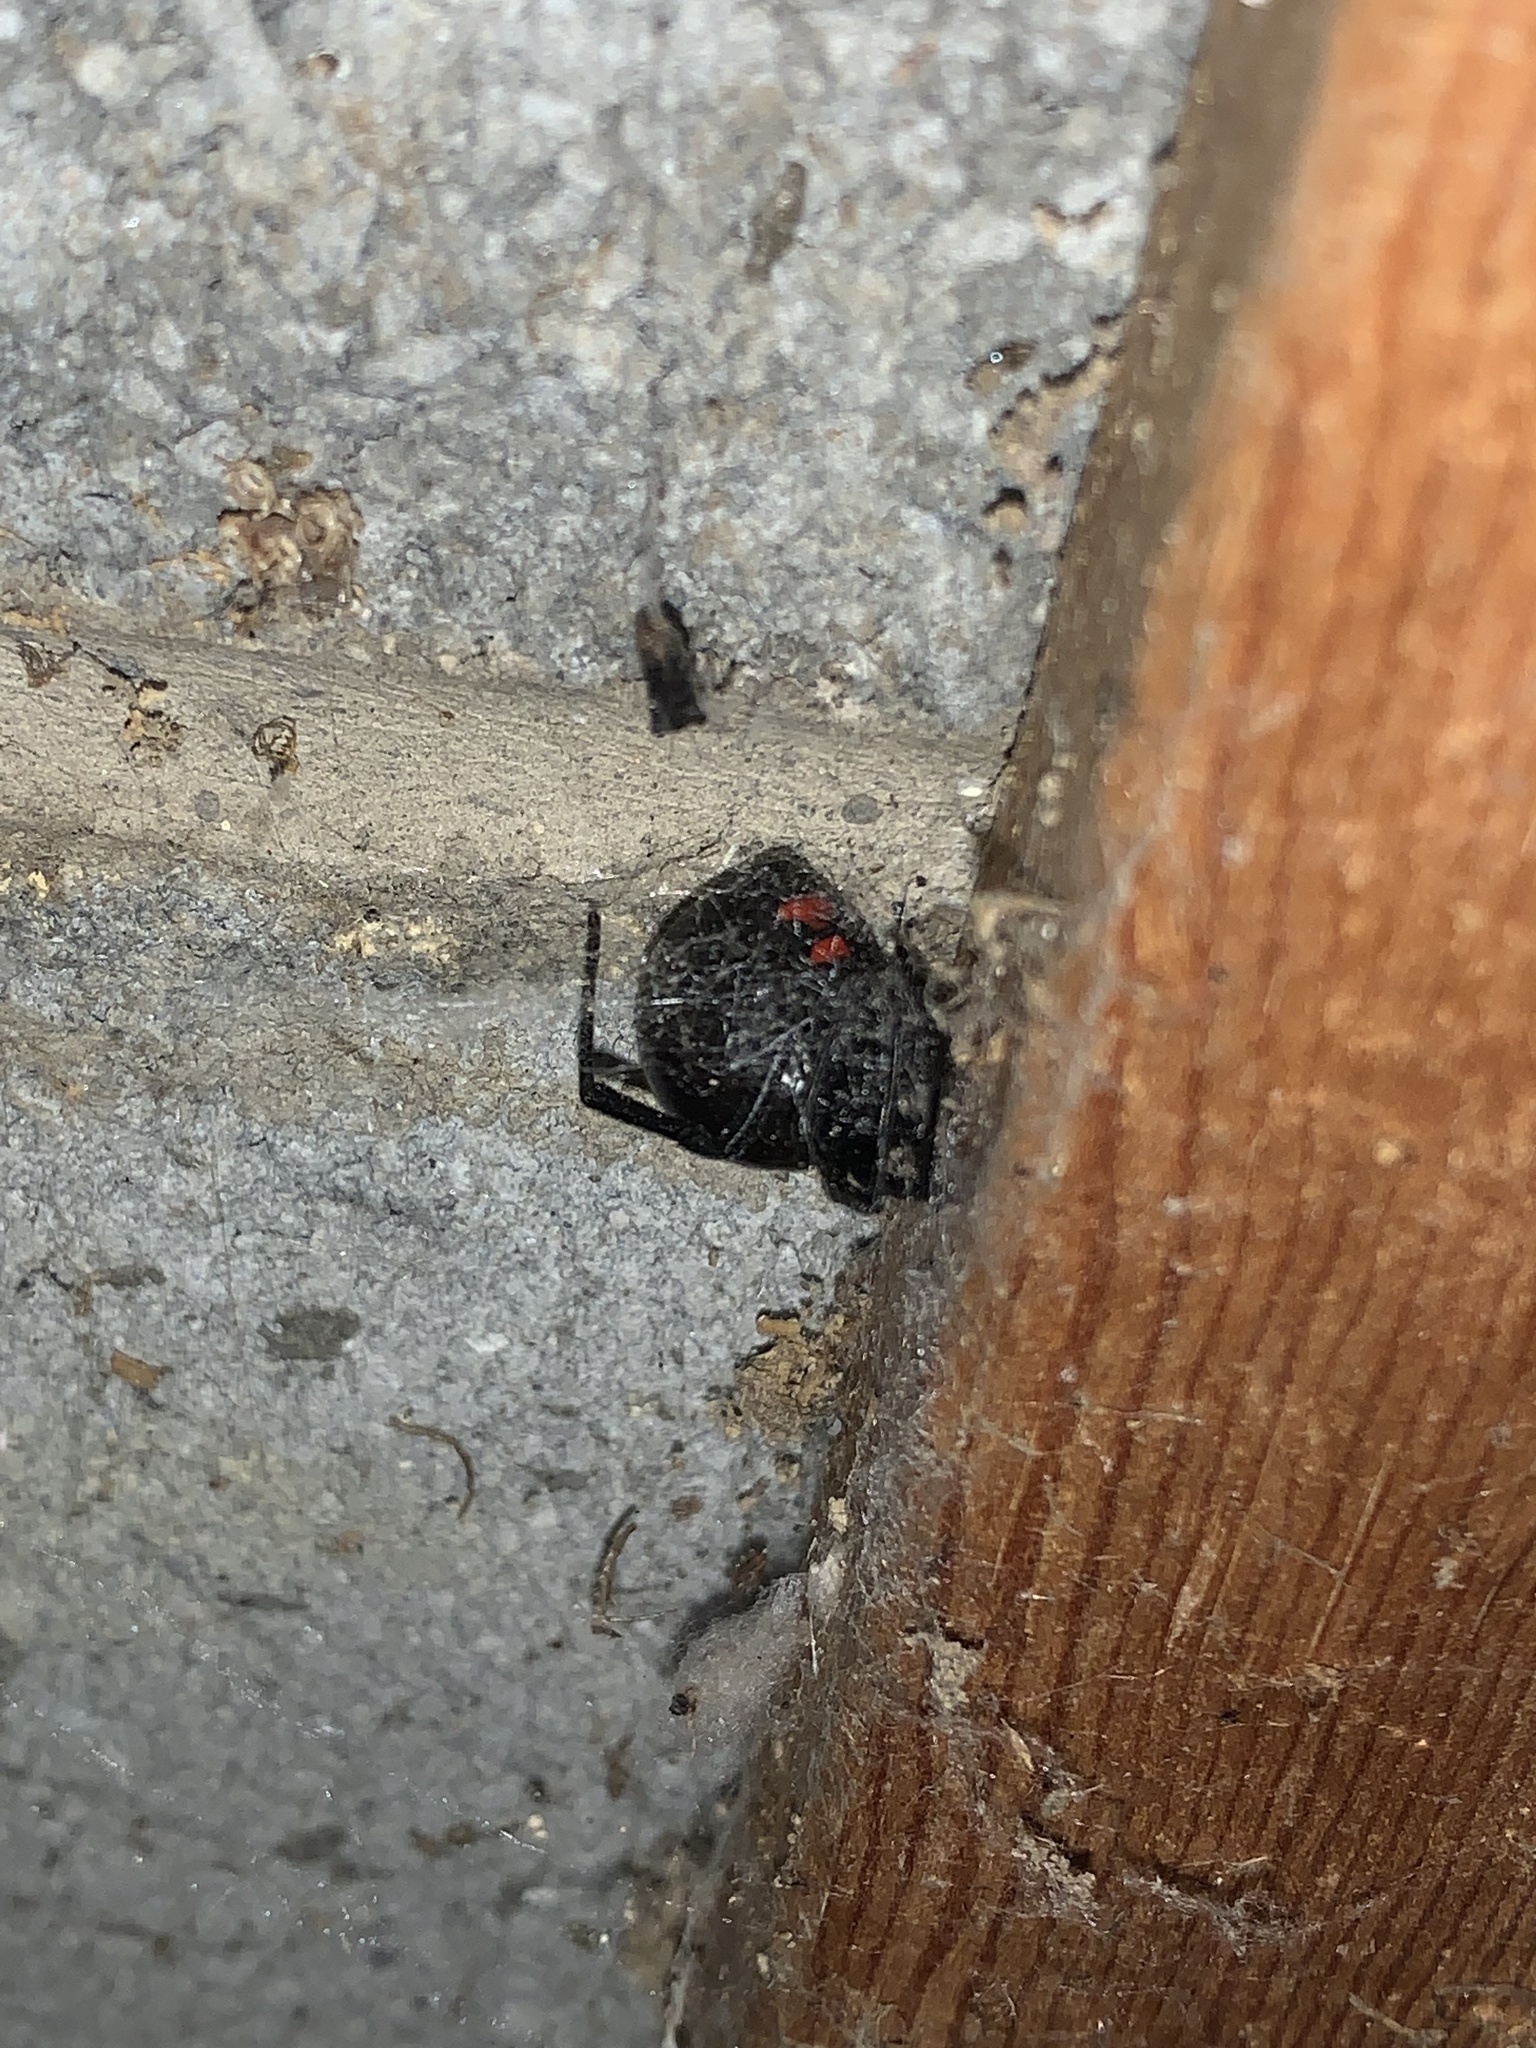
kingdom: Animalia
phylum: Arthropoda
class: Arachnida
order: Araneae
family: Theridiidae
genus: Latrodectus
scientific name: Latrodectus variolus
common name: Northern black widow
